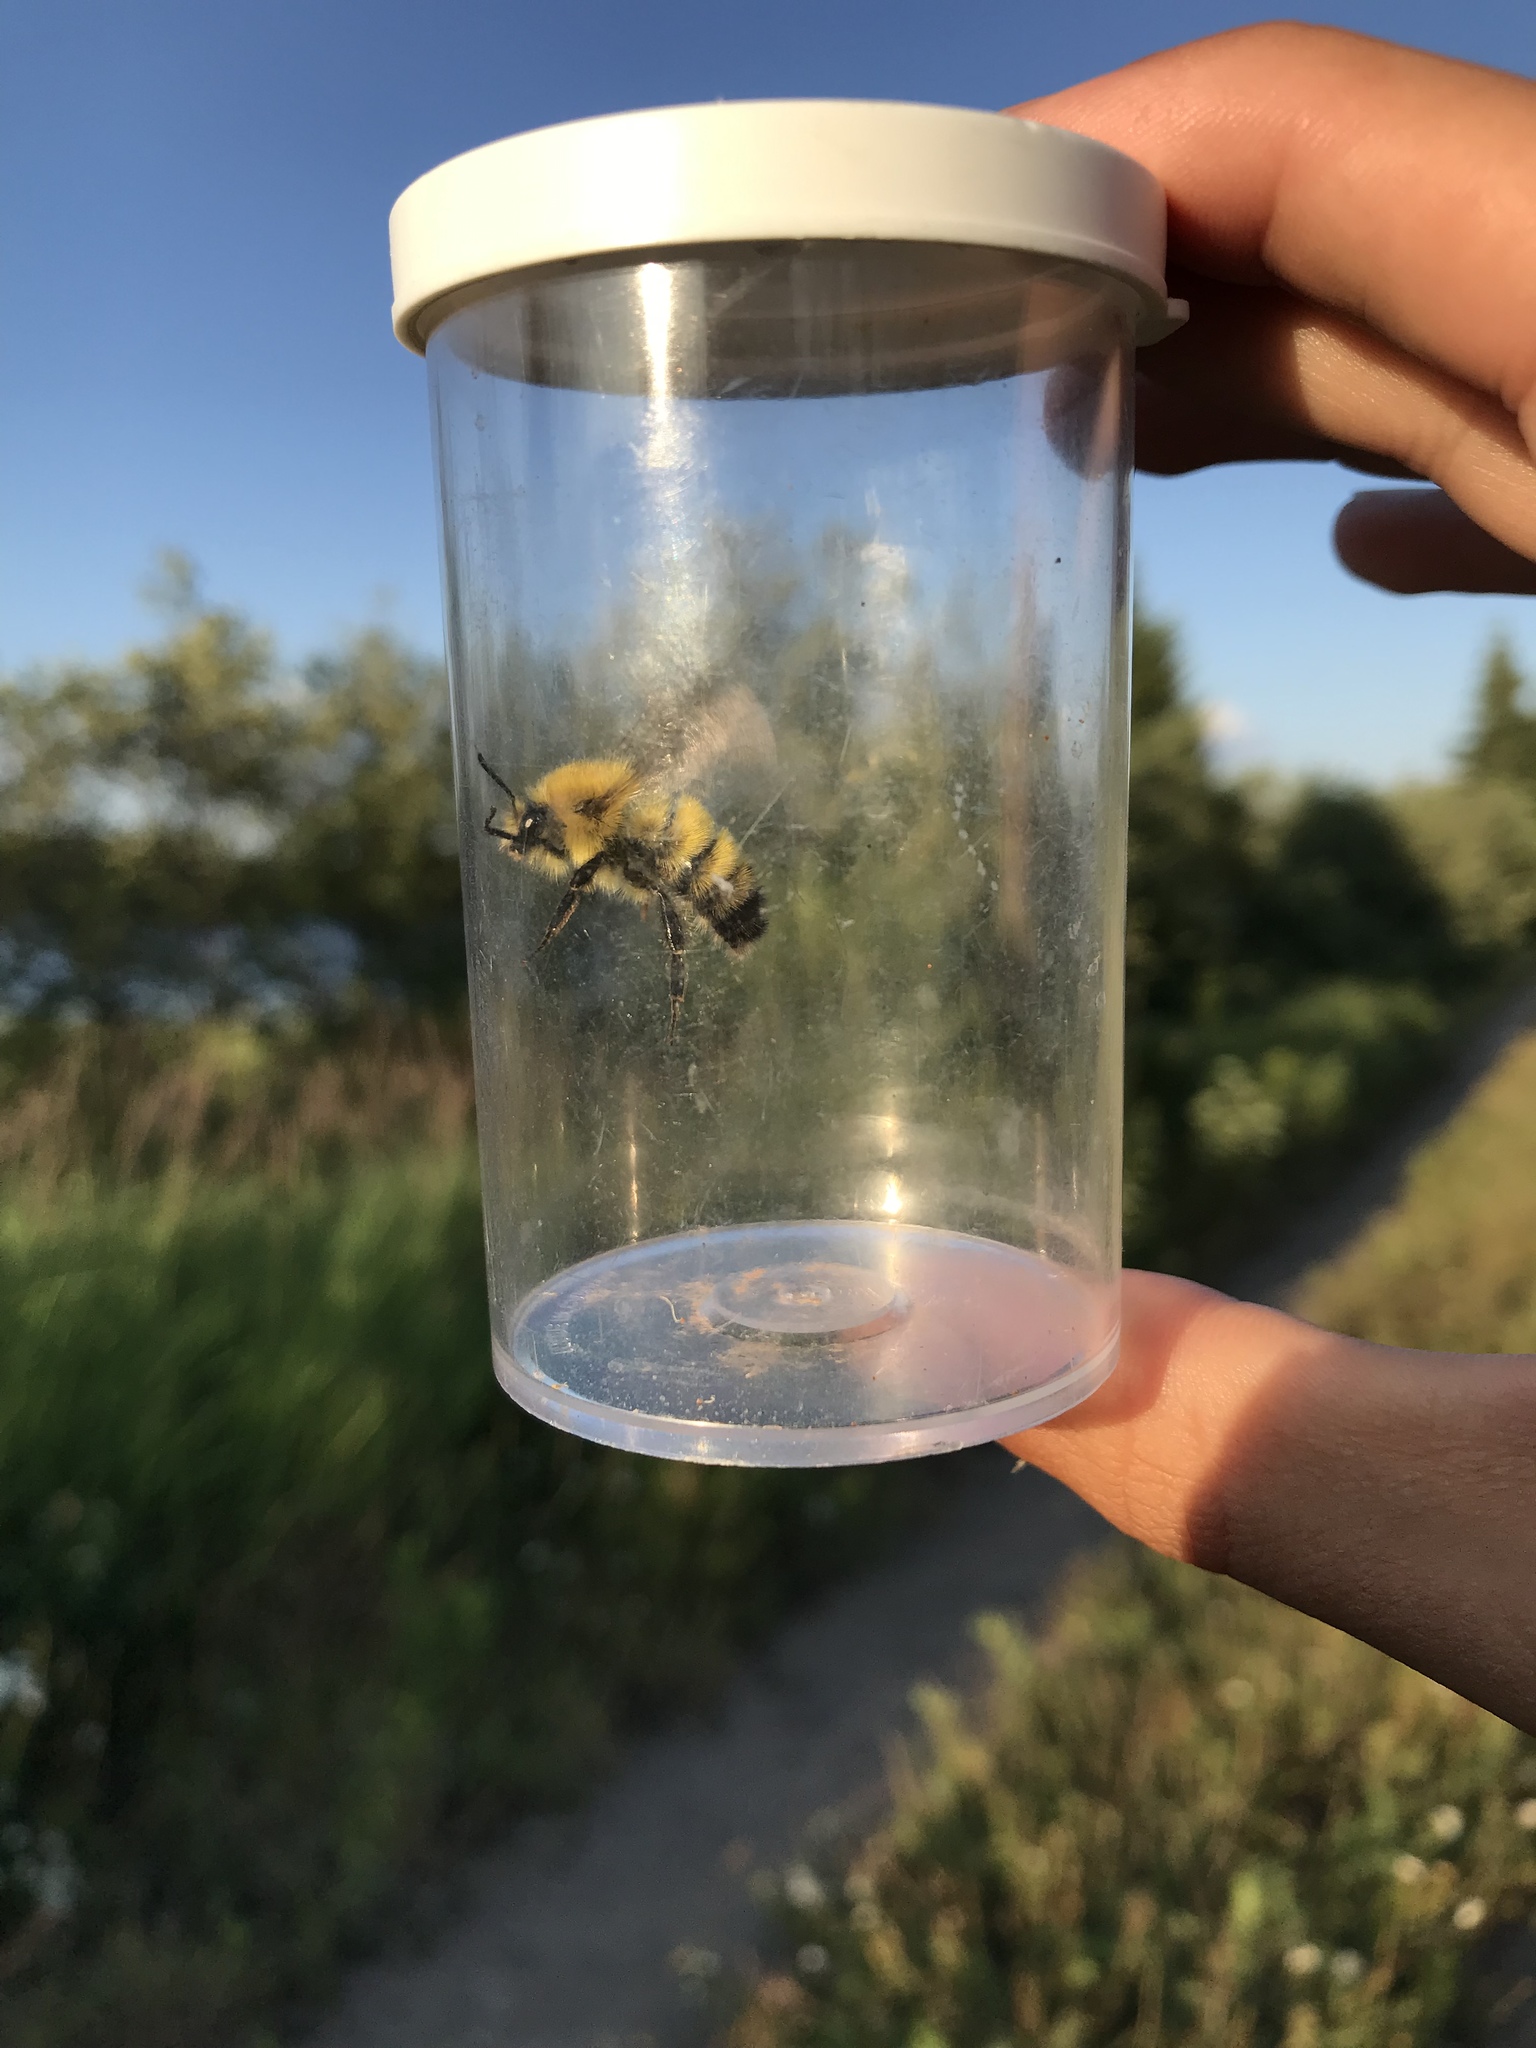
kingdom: Animalia
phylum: Arthropoda
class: Insecta
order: Hymenoptera
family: Apidae
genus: Bombus
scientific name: Bombus perplexus
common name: Confusing bumble bee
